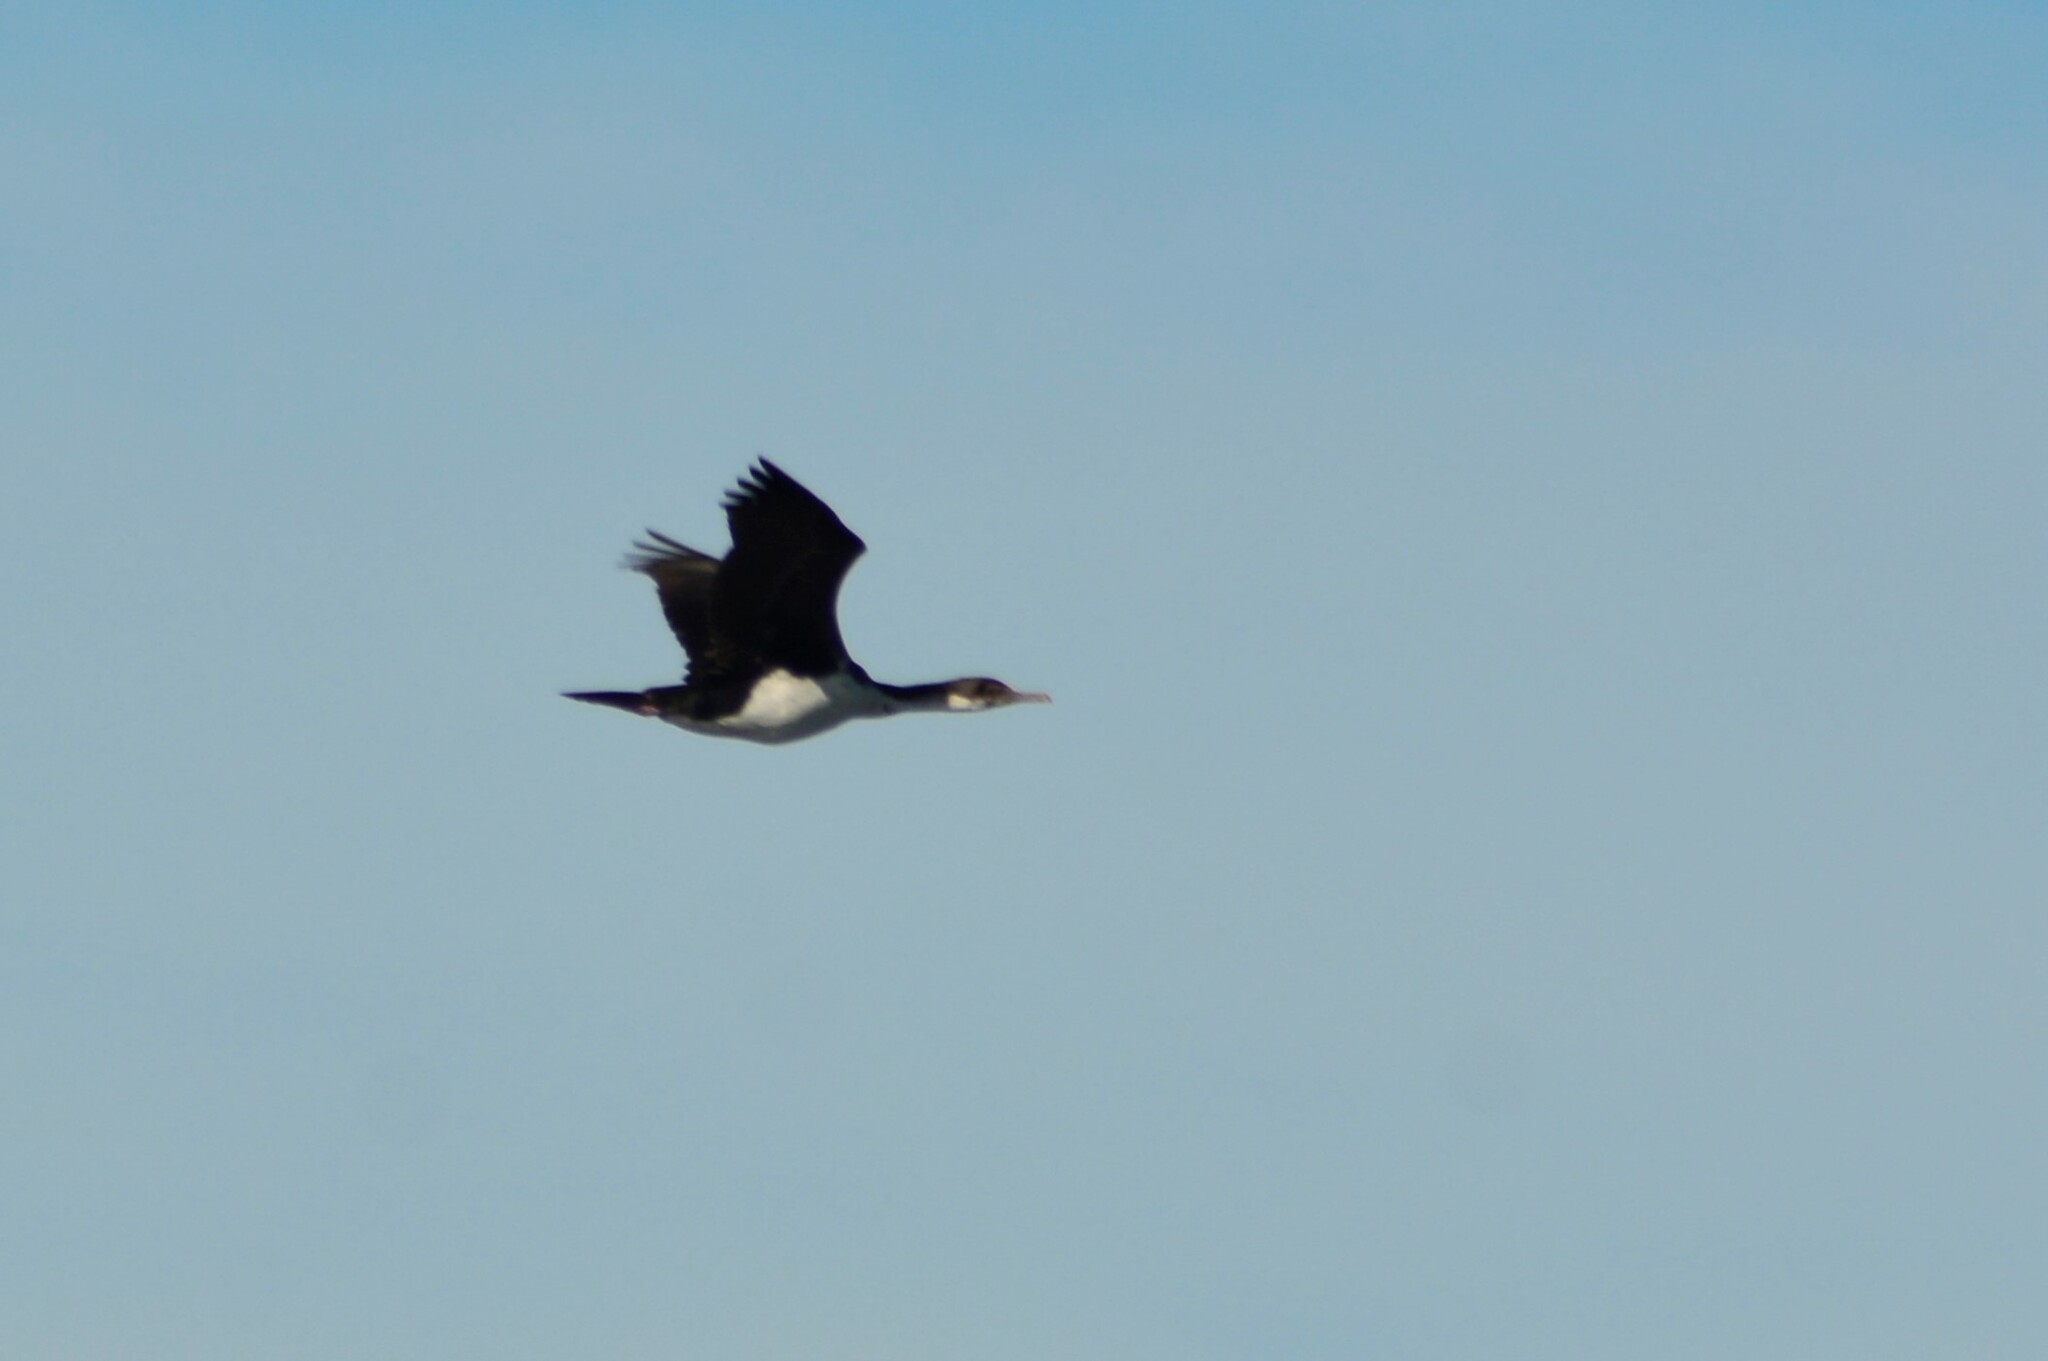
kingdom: Animalia
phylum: Chordata
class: Aves
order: Suliformes
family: Phalacrocoracidae
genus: Leucocarbo
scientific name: Leucocarbo atriceps
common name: Imperial shag
